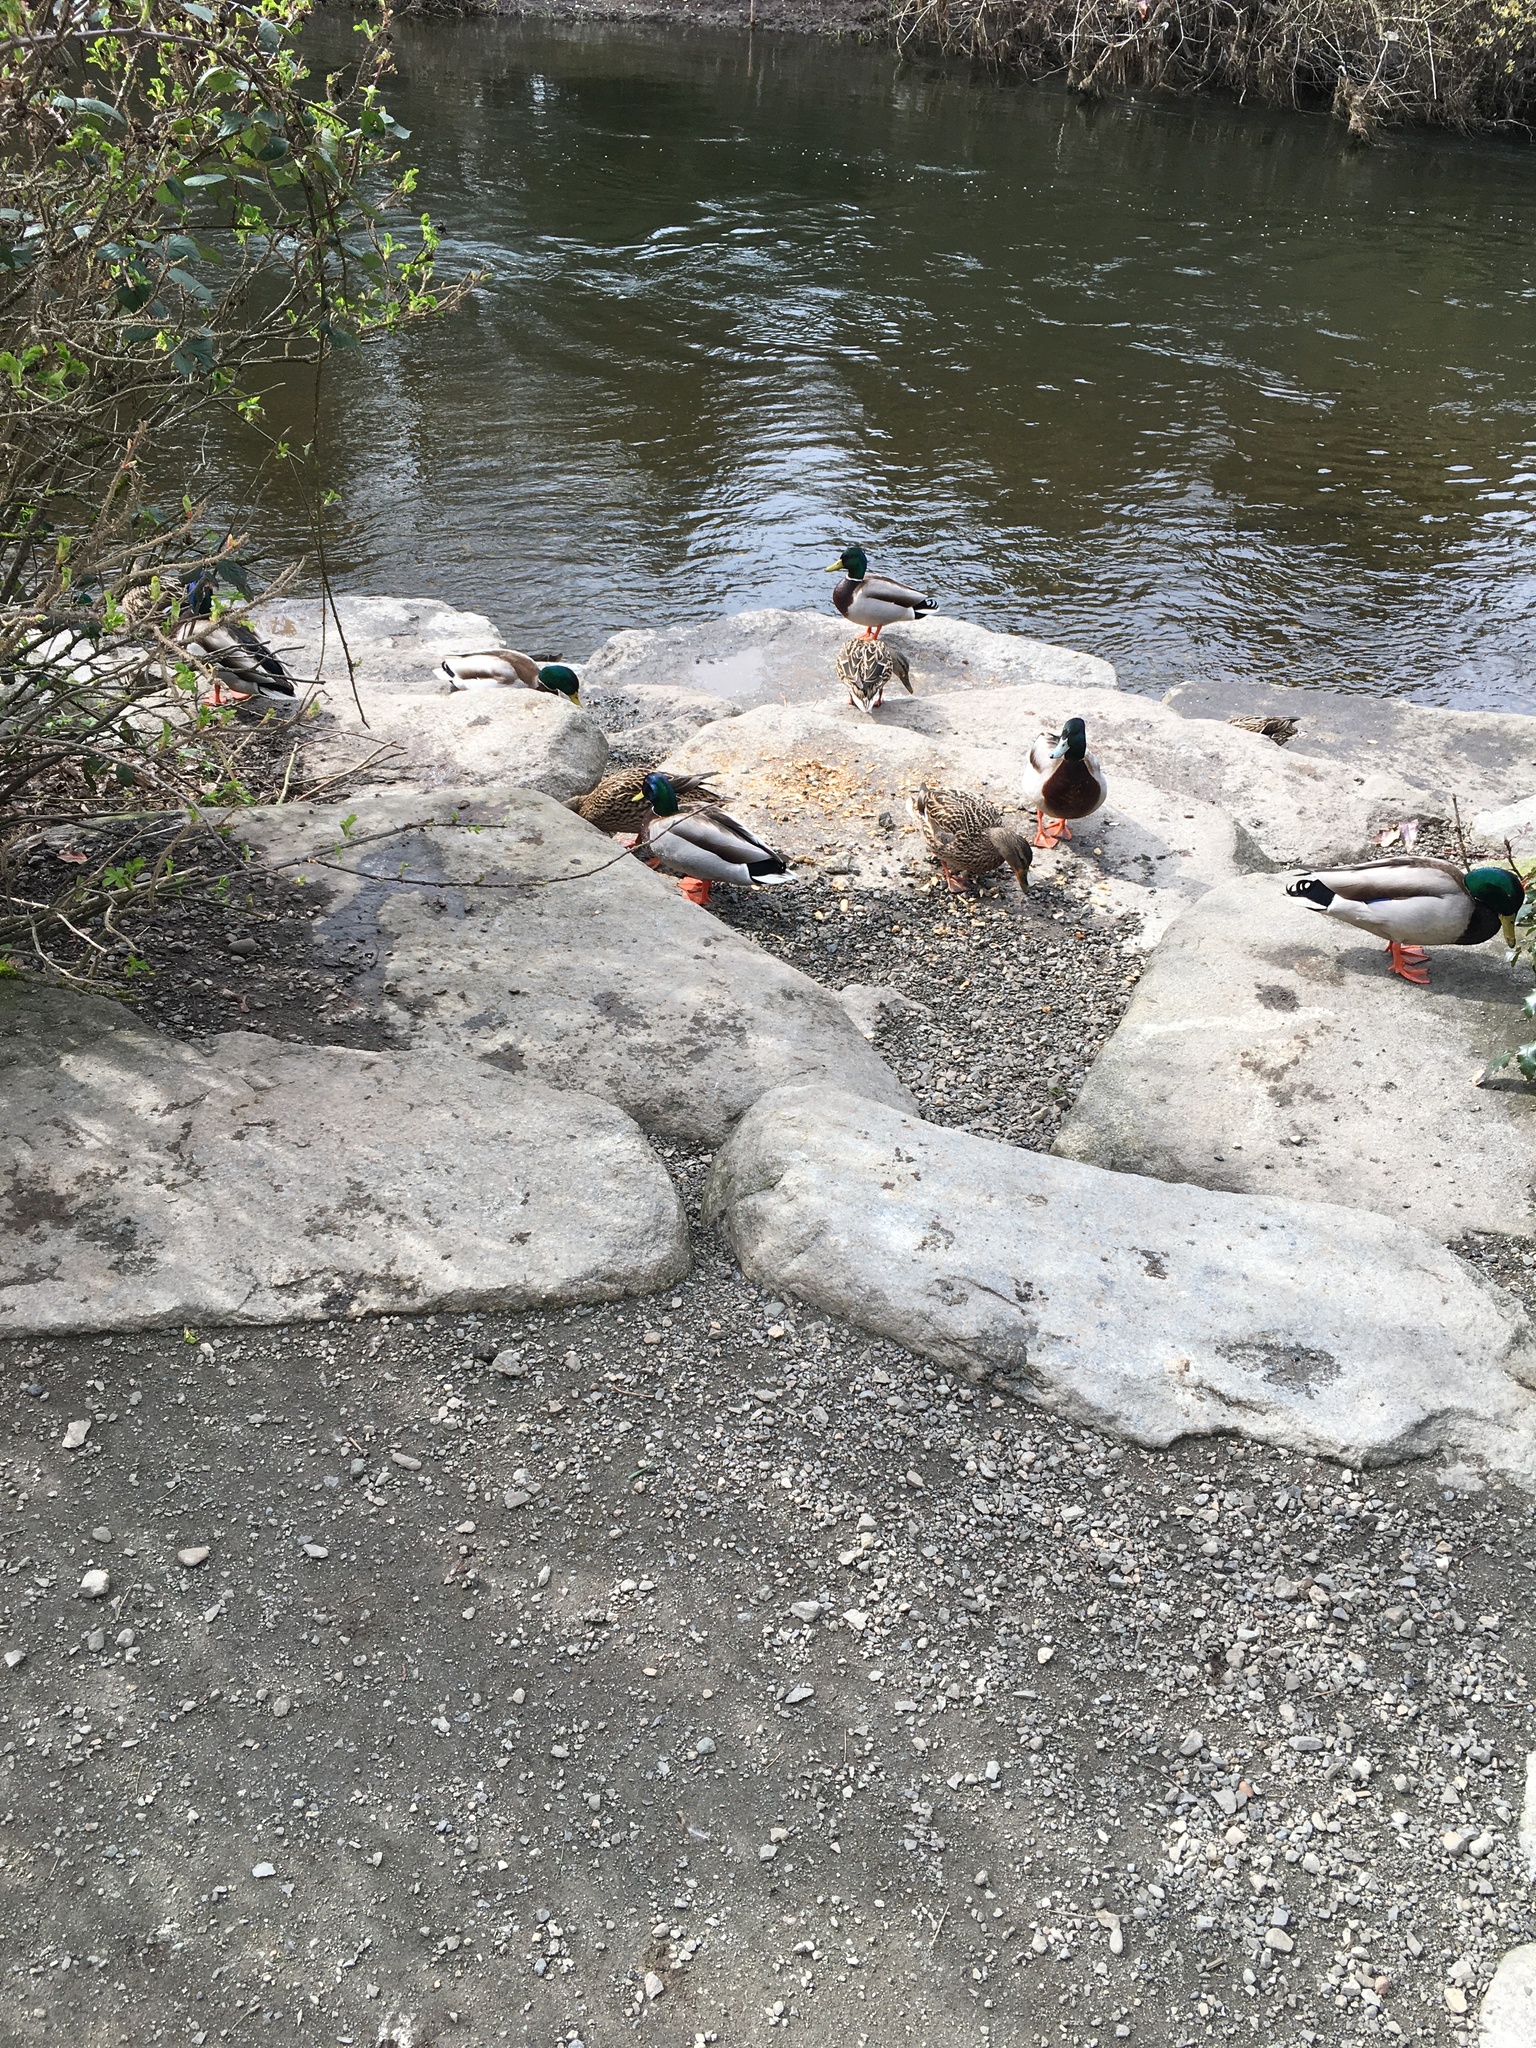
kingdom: Animalia
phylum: Chordata
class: Aves
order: Anseriformes
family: Anatidae
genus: Anas
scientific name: Anas platyrhynchos
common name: Mallard
